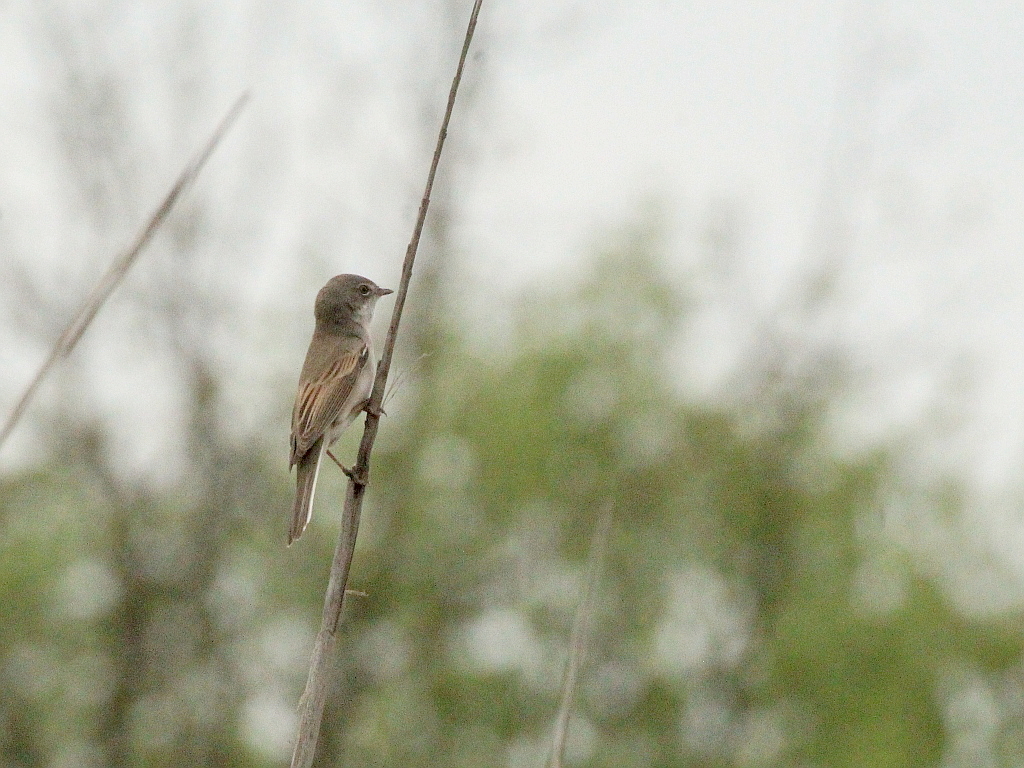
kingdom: Animalia
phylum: Chordata
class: Aves
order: Passeriformes
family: Sylviidae
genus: Sylvia
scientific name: Sylvia communis
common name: Common whitethroat
